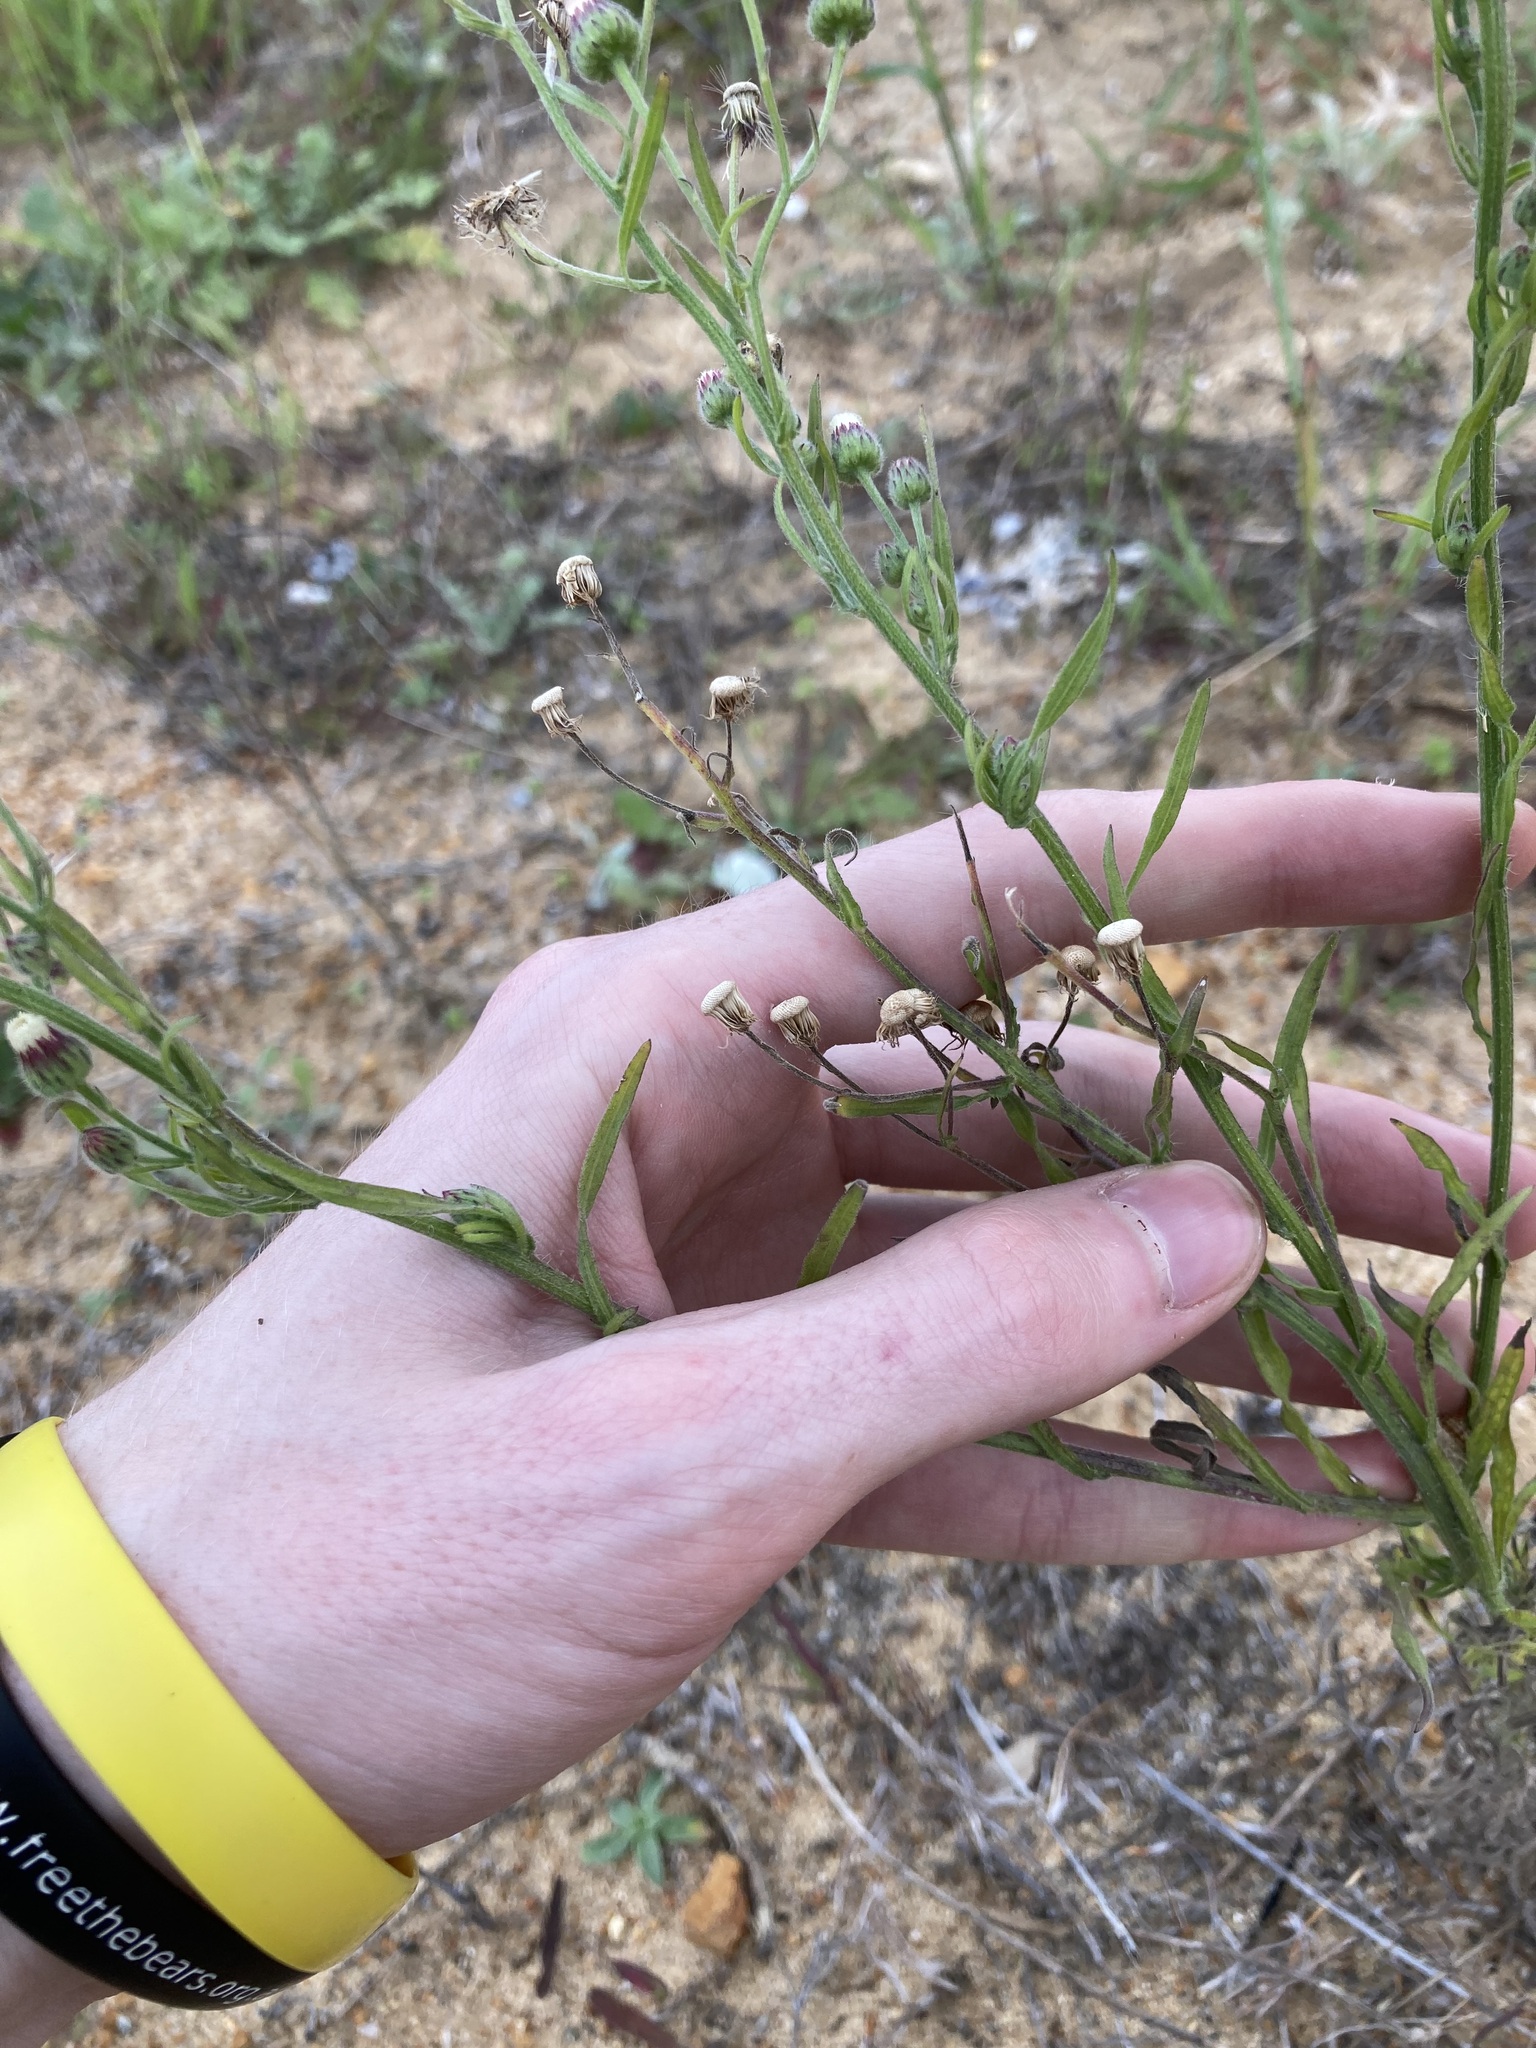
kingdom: Plantae
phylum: Tracheophyta
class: Magnoliopsida
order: Asterales
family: Asteraceae
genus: Erigeron
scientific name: Erigeron bonariensis
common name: Argentine fleabane
